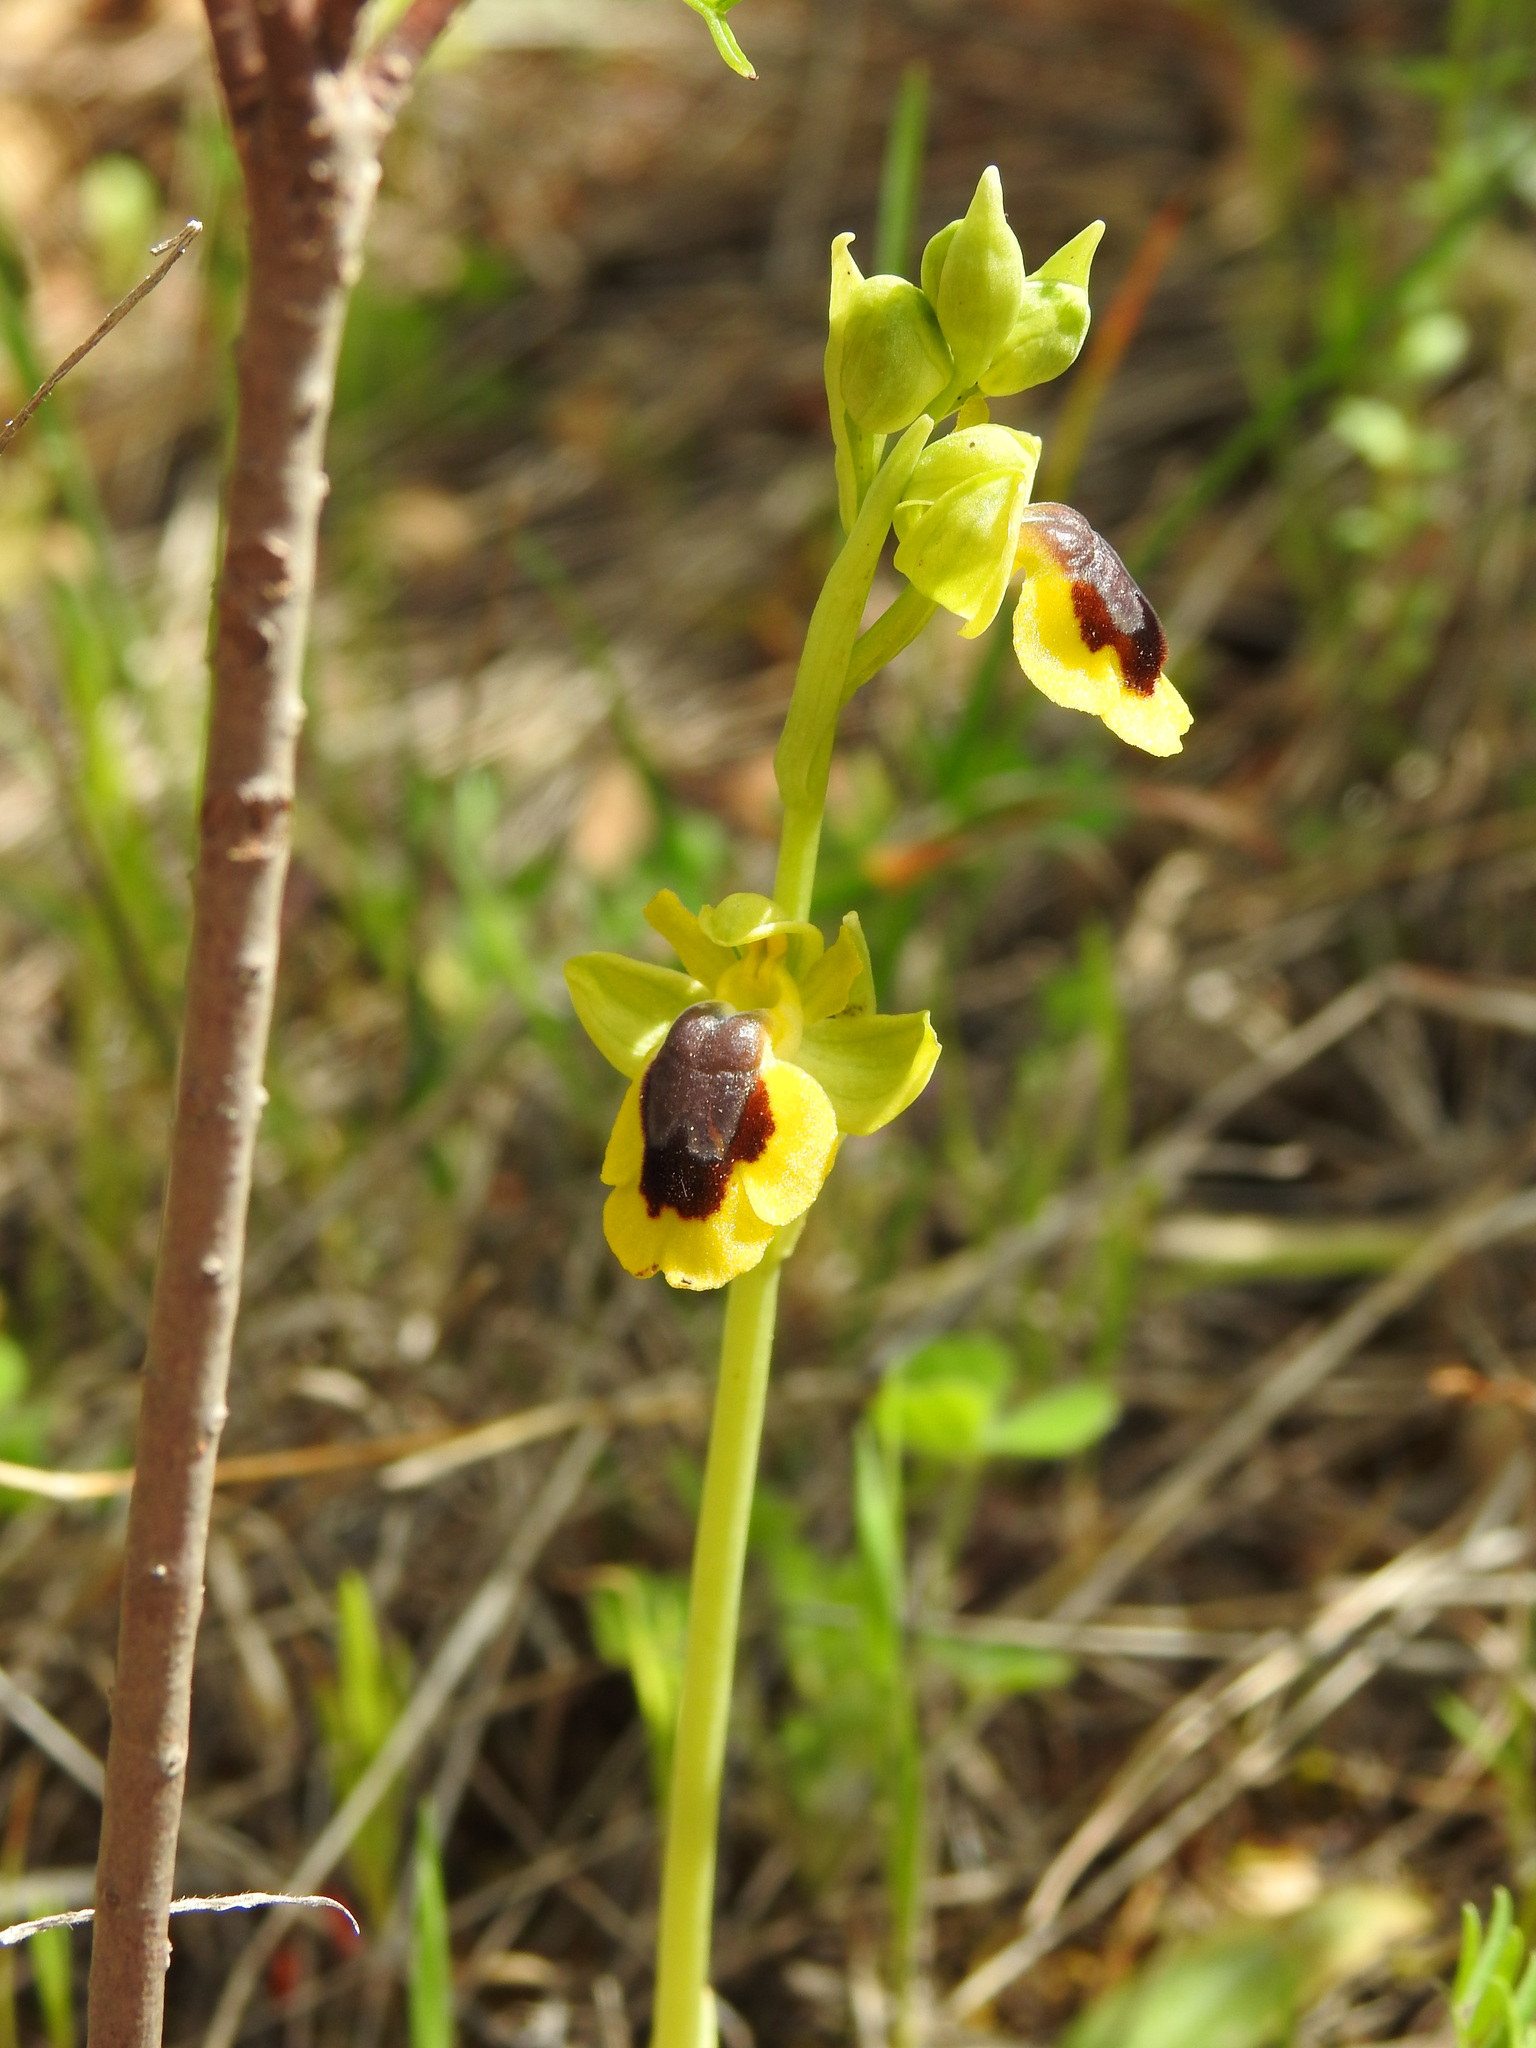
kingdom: Plantae
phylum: Tracheophyta
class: Liliopsida
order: Asparagales
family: Orchidaceae
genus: Ophrys
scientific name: Ophrys lutea
